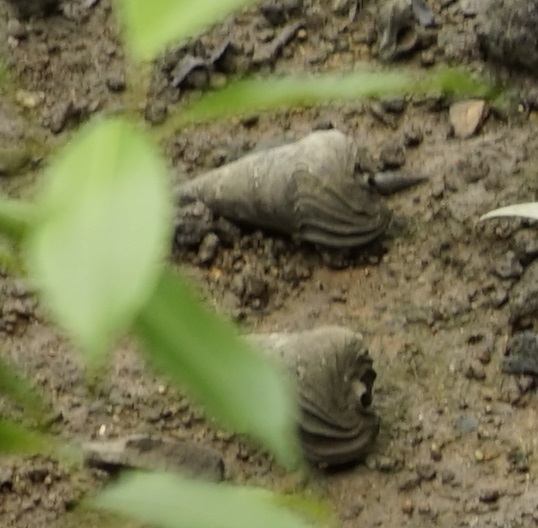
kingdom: Animalia
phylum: Mollusca
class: Gastropoda
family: Potamididae
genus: Telescopium
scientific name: Telescopium telescopium
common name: Telescope creeper
